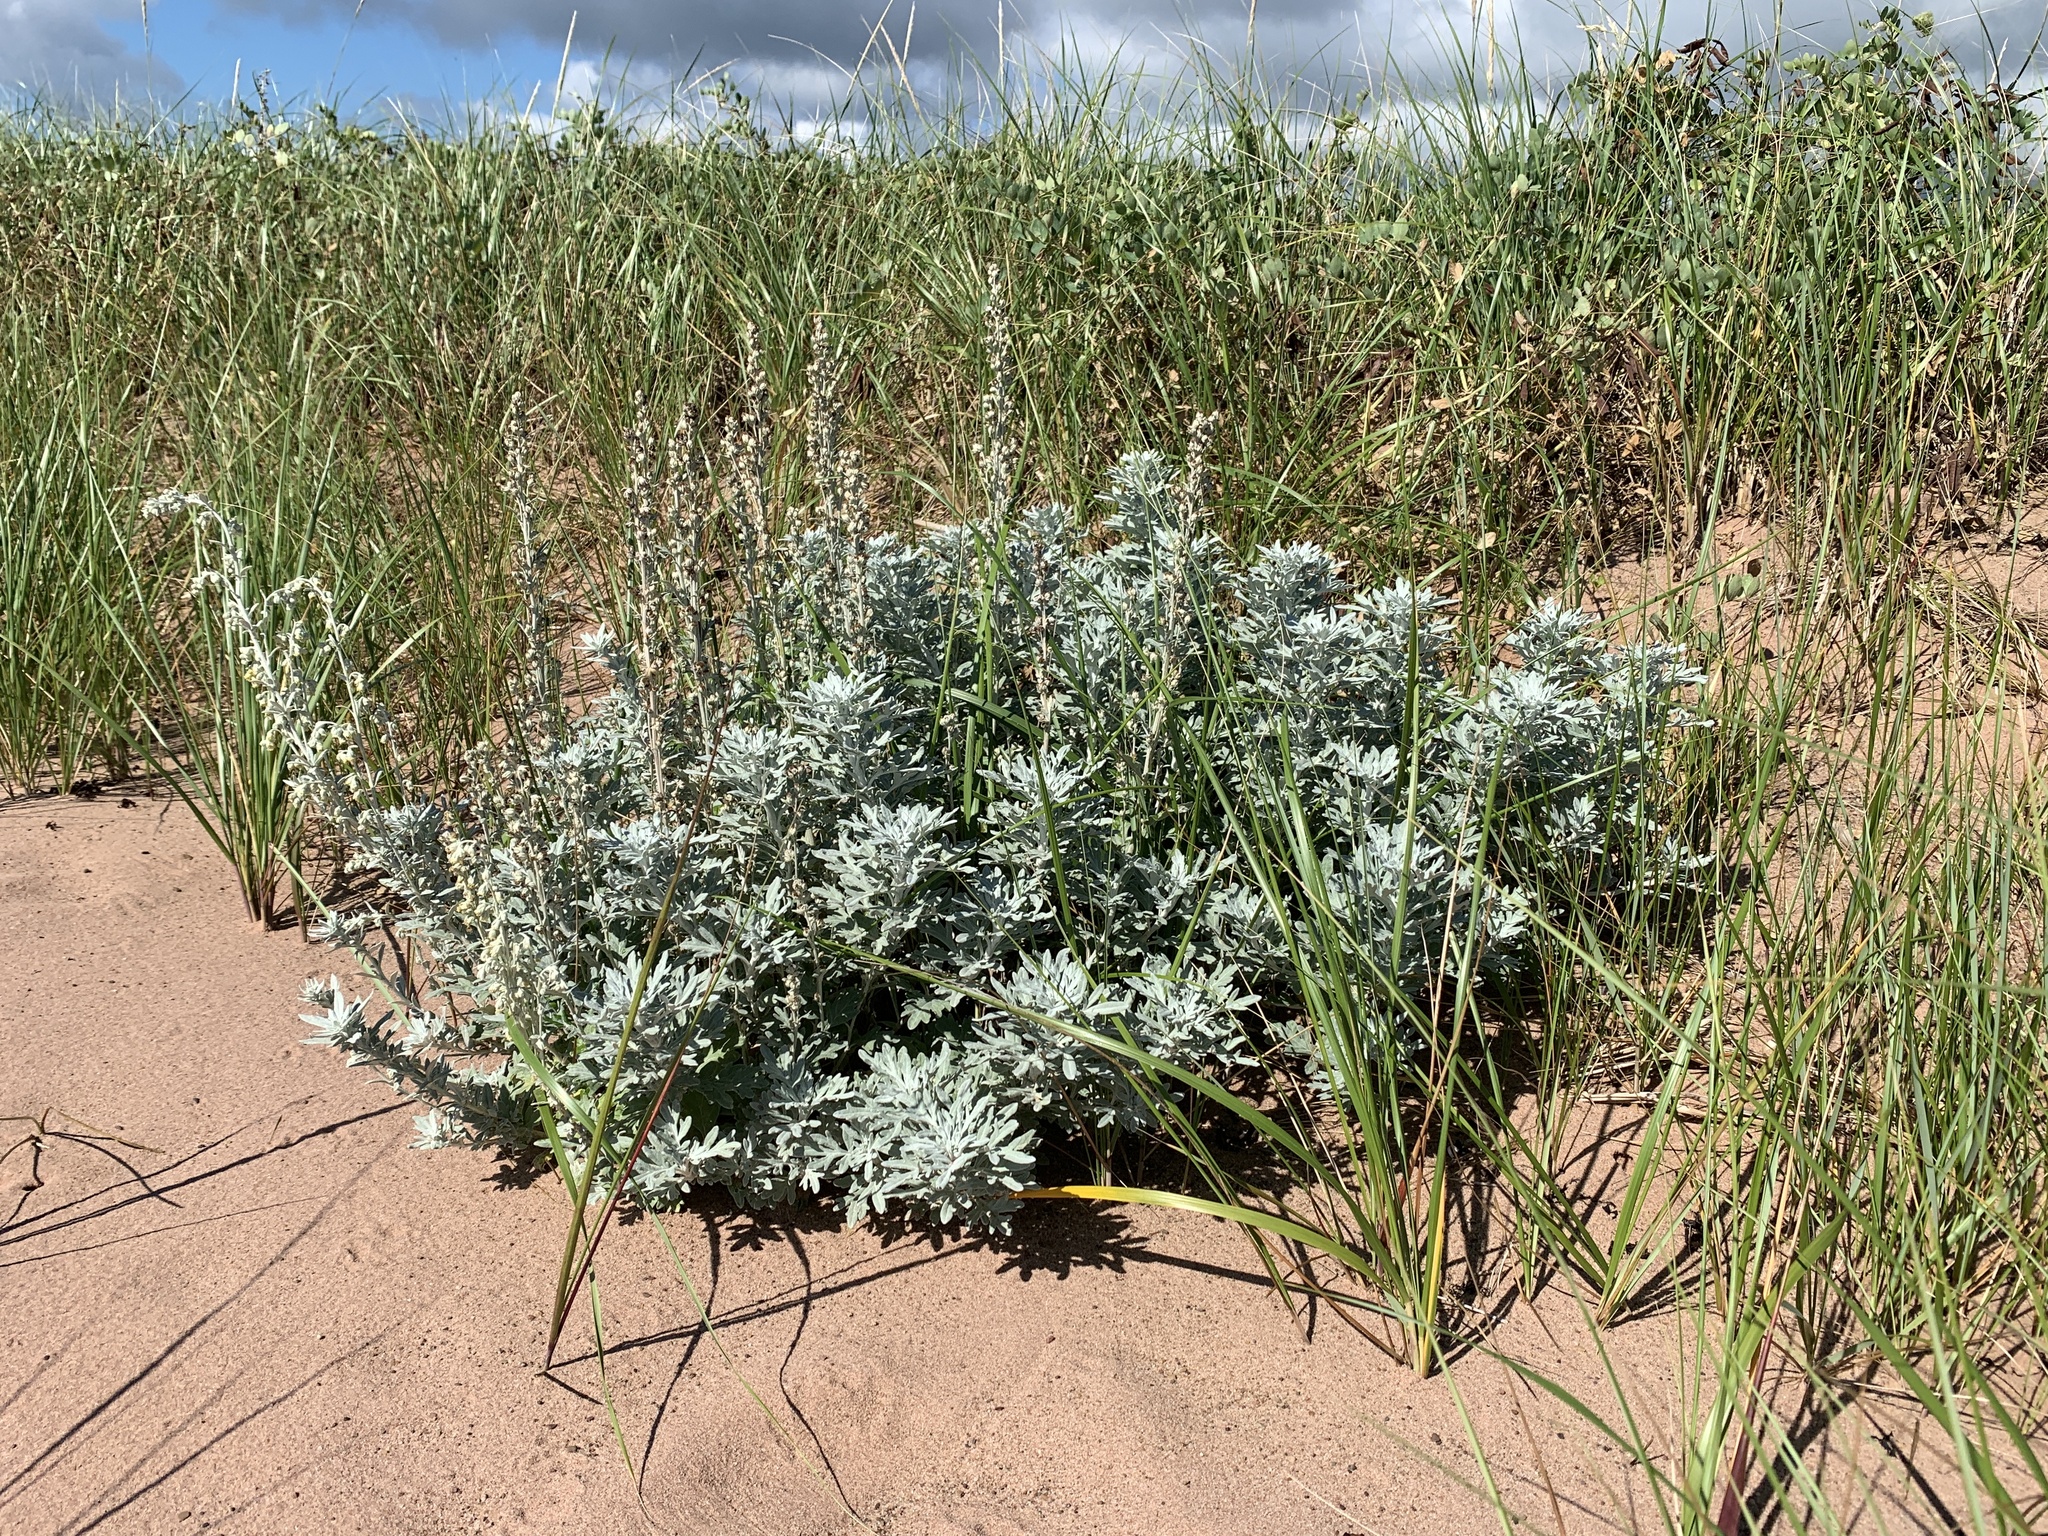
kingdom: Plantae
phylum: Tracheophyta
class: Magnoliopsida
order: Asterales
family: Asteraceae
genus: Artemisia
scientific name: Artemisia stelleriana
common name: Beach wormwood
